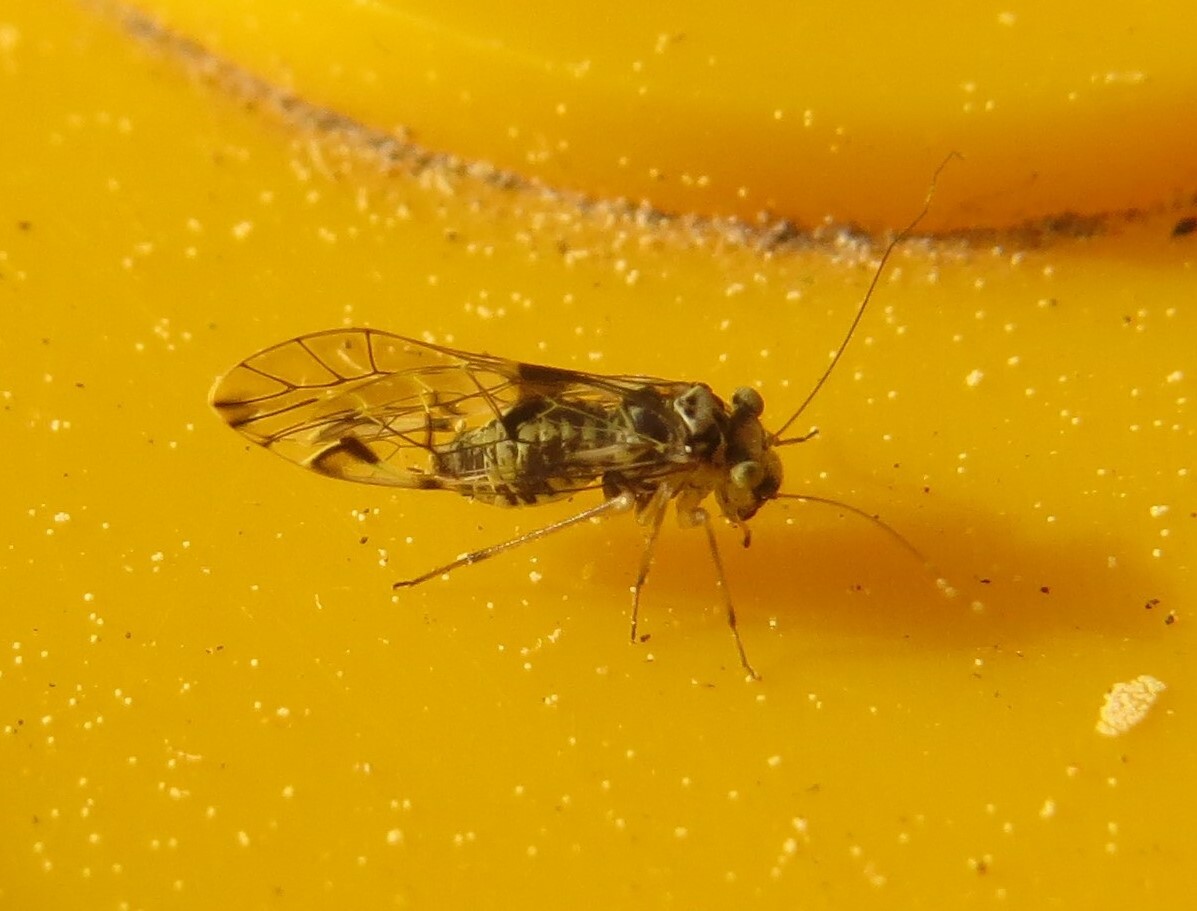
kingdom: Animalia
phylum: Arthropoda
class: Insecta
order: Psocodea
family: Psocidae
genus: Blaste
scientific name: Blaste tillyardi
